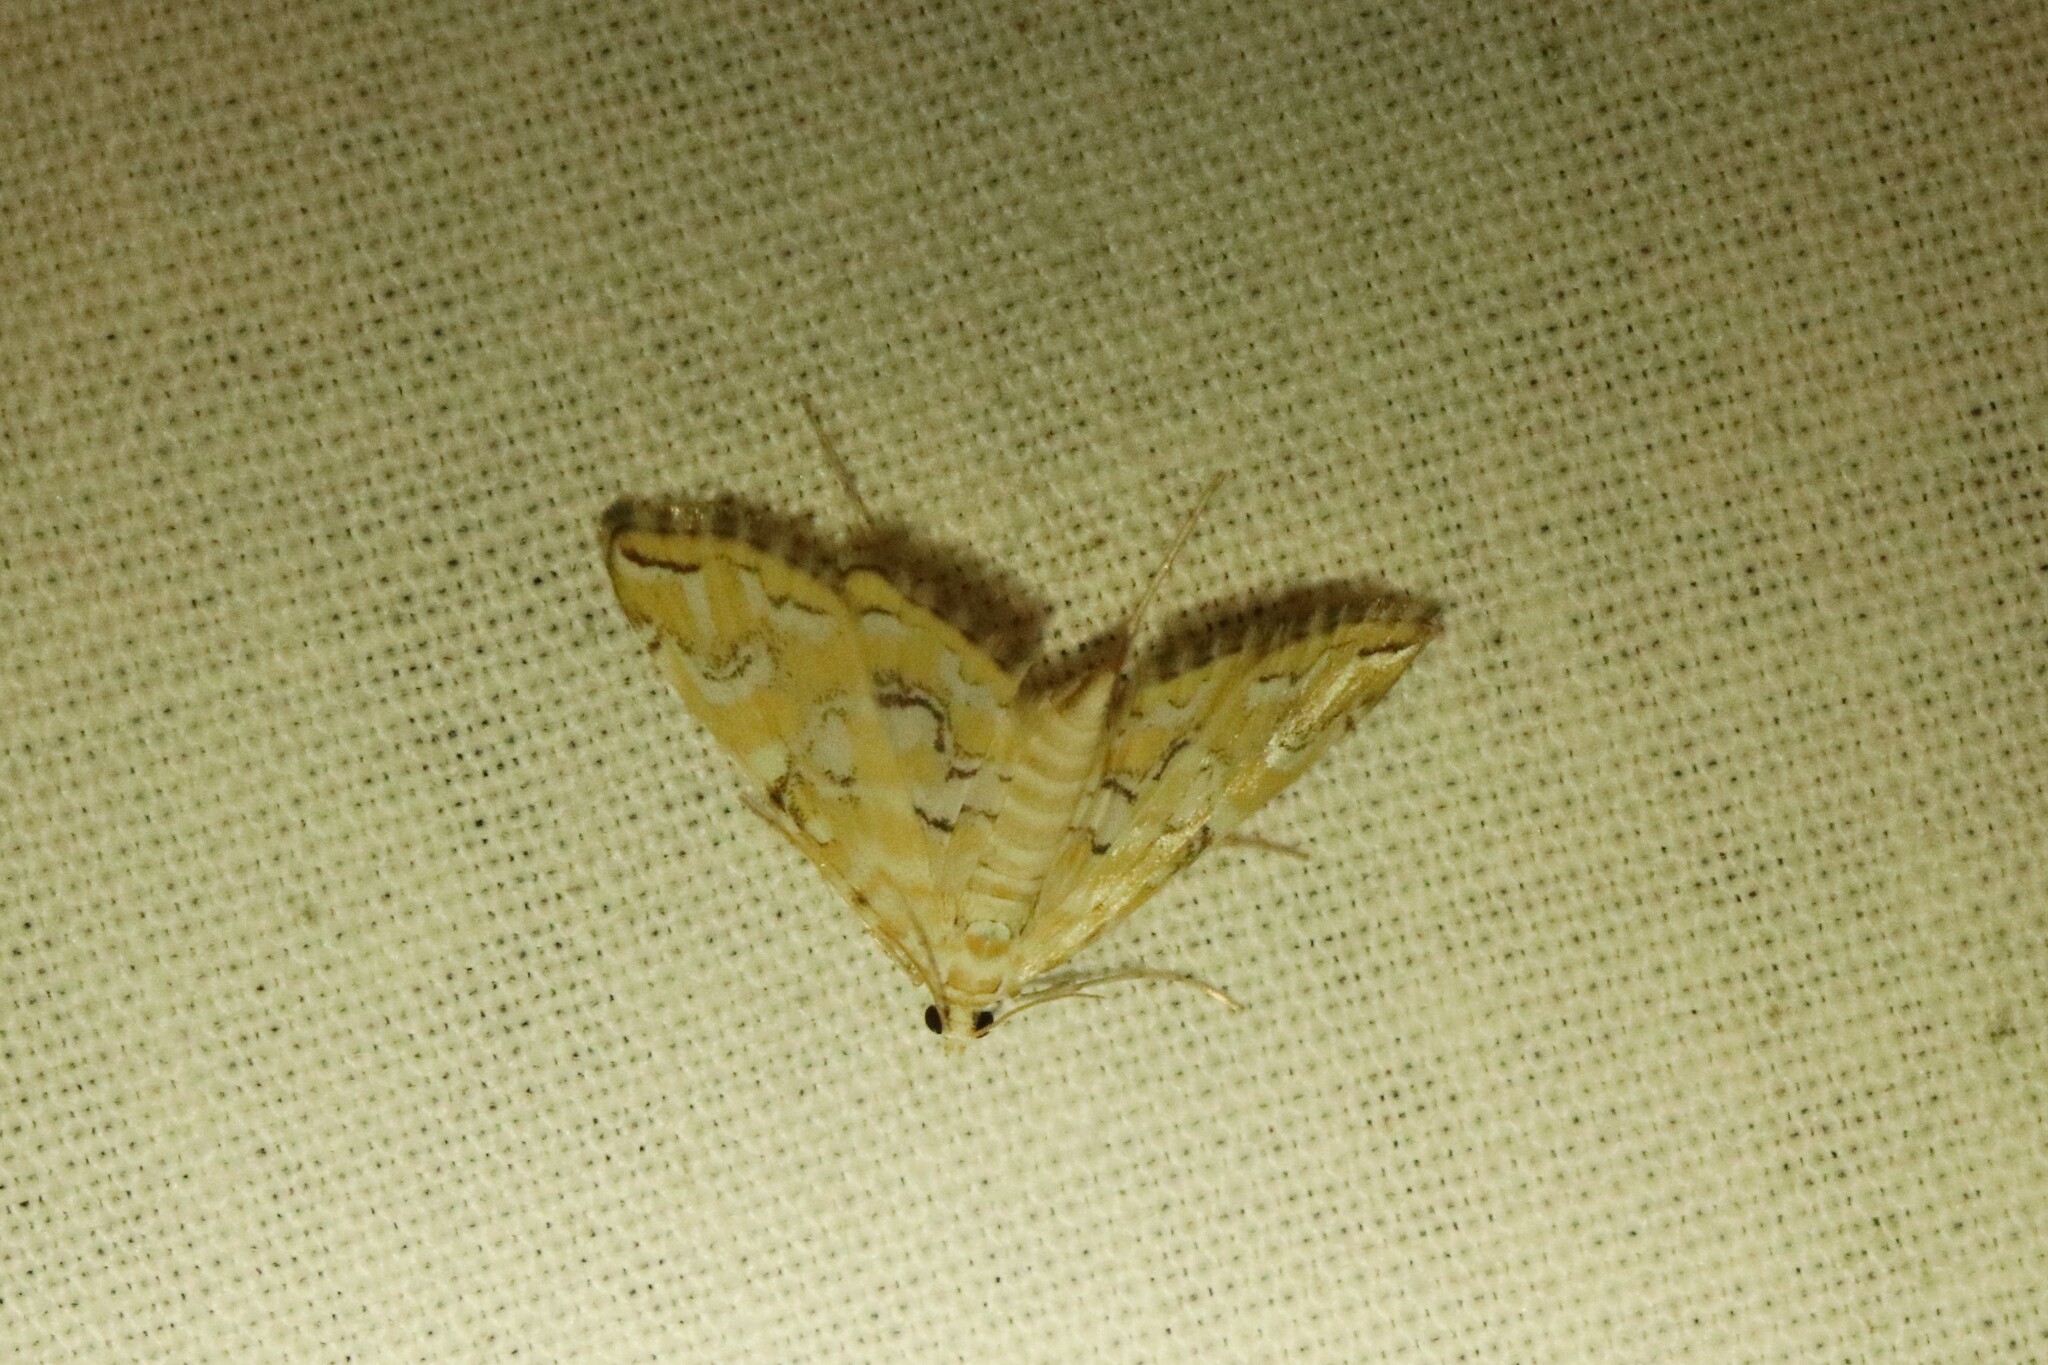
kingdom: Animalia
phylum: Arthropoda
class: Insecta
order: Lepidoptera
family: Crambidae
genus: Elophila
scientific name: Elophila icciusalis
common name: Pondside pyralid moth
